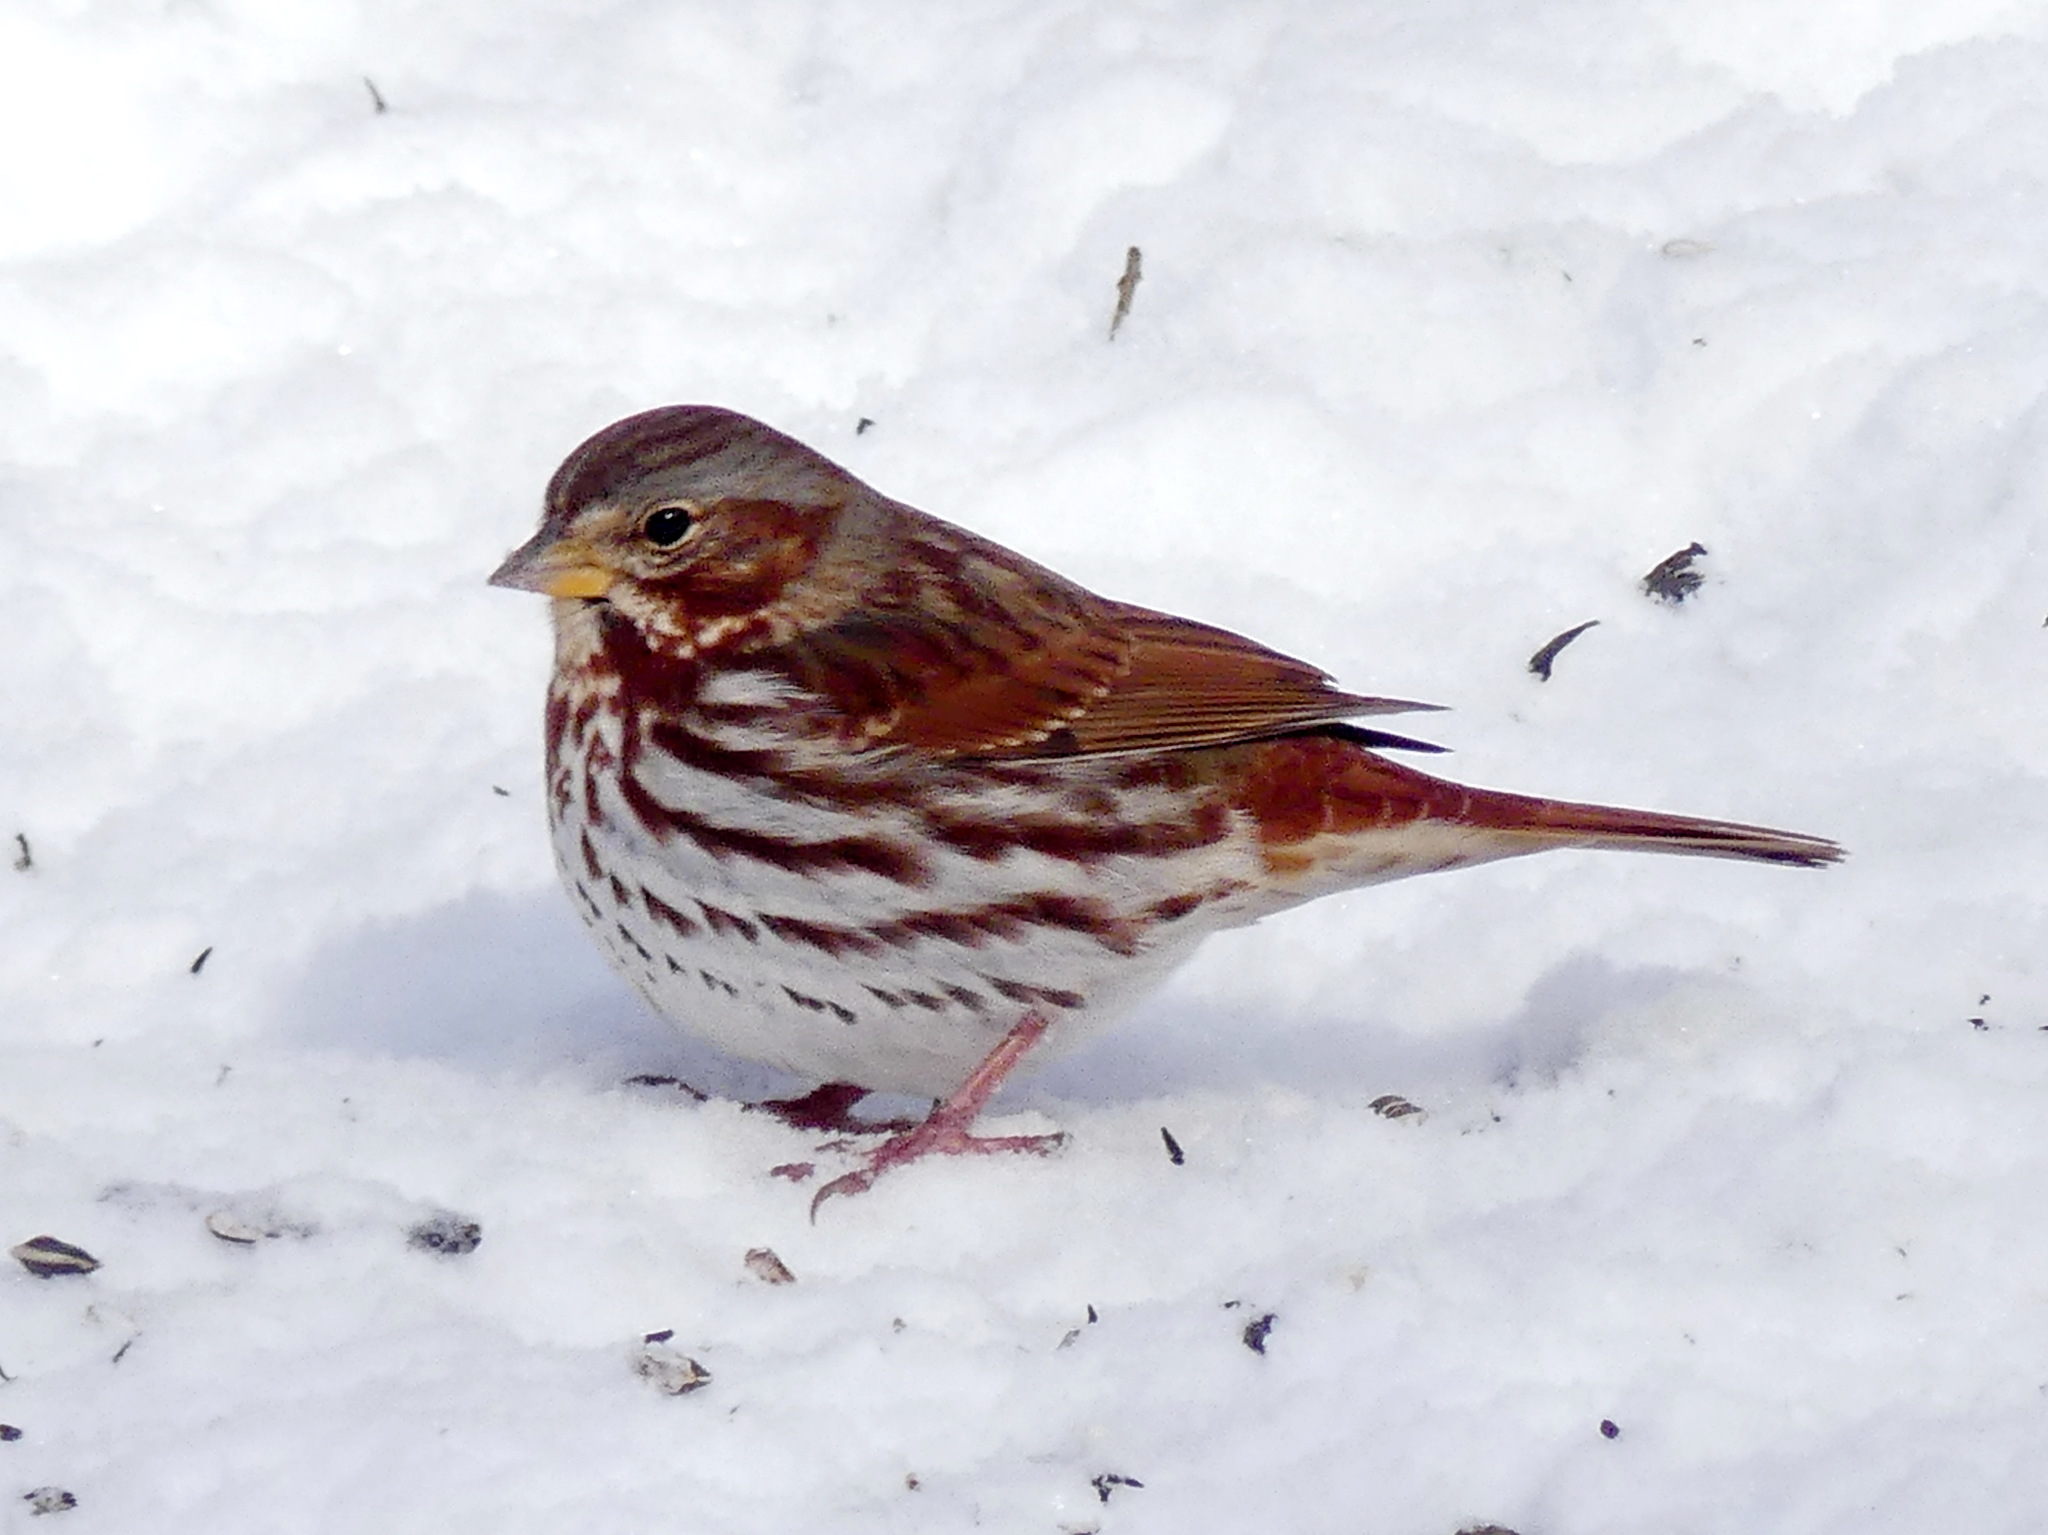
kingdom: Animalia
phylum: Chordata
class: Aves
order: Passeriformes
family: Passerellidae
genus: Passerella
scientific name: Passerella iliaca
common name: Fox sparrow
